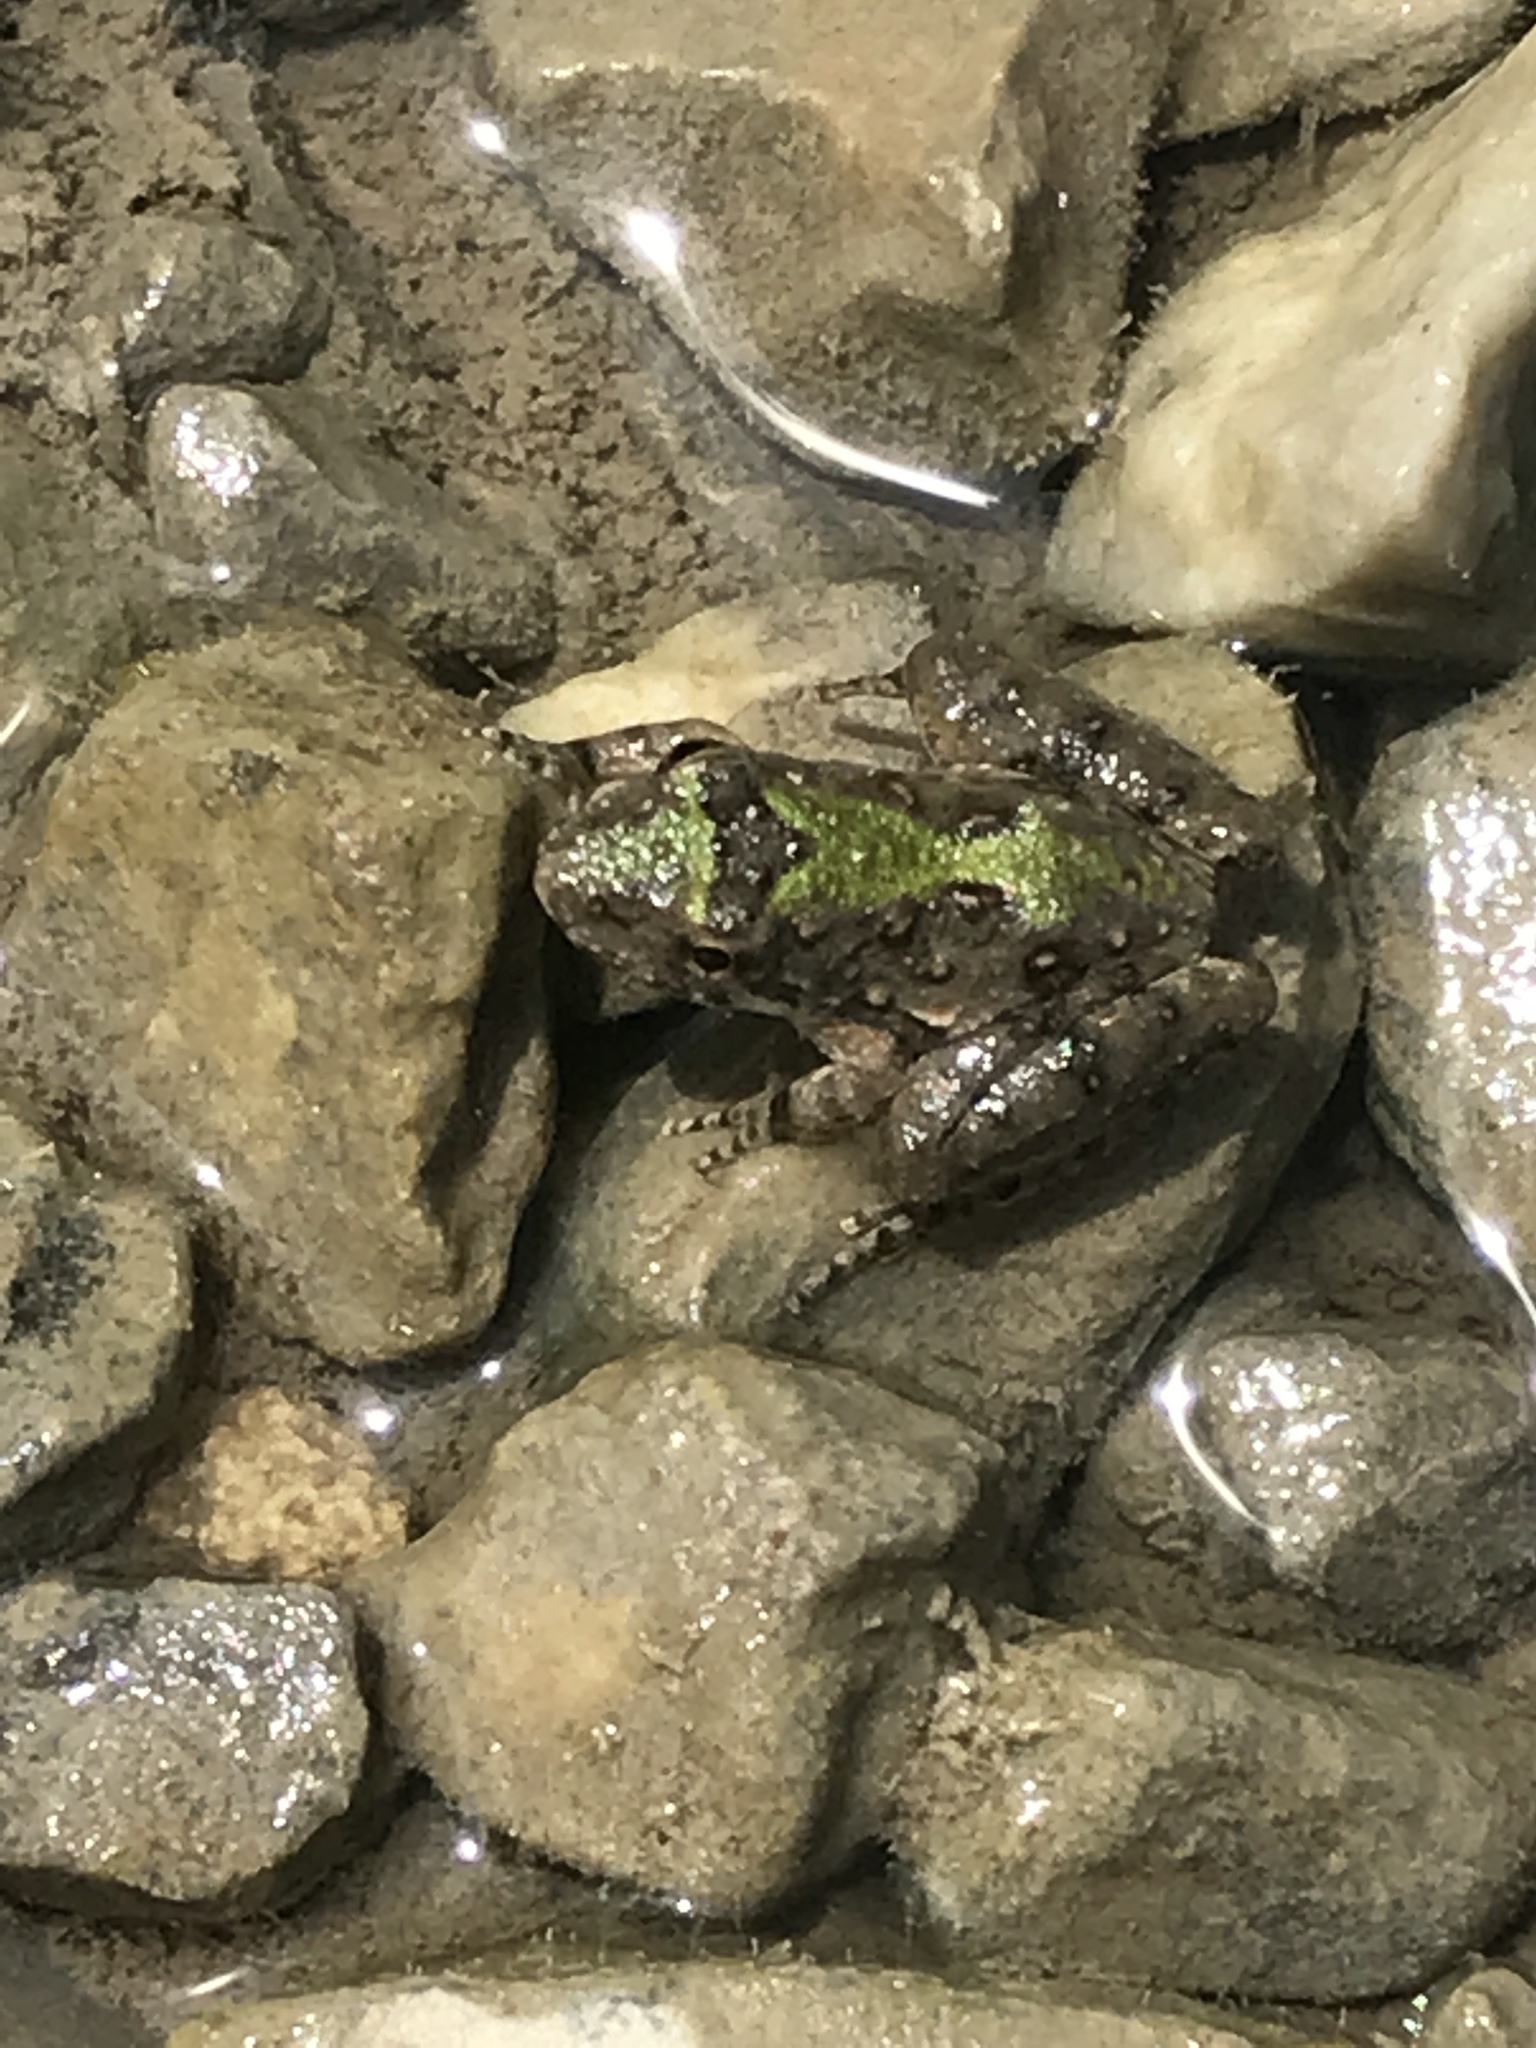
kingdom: Animalia
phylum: Chordata
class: Amphibia
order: Anura
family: Hylidae
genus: Acris
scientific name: Acris blanchardi
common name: Blanchard's cricket frog
